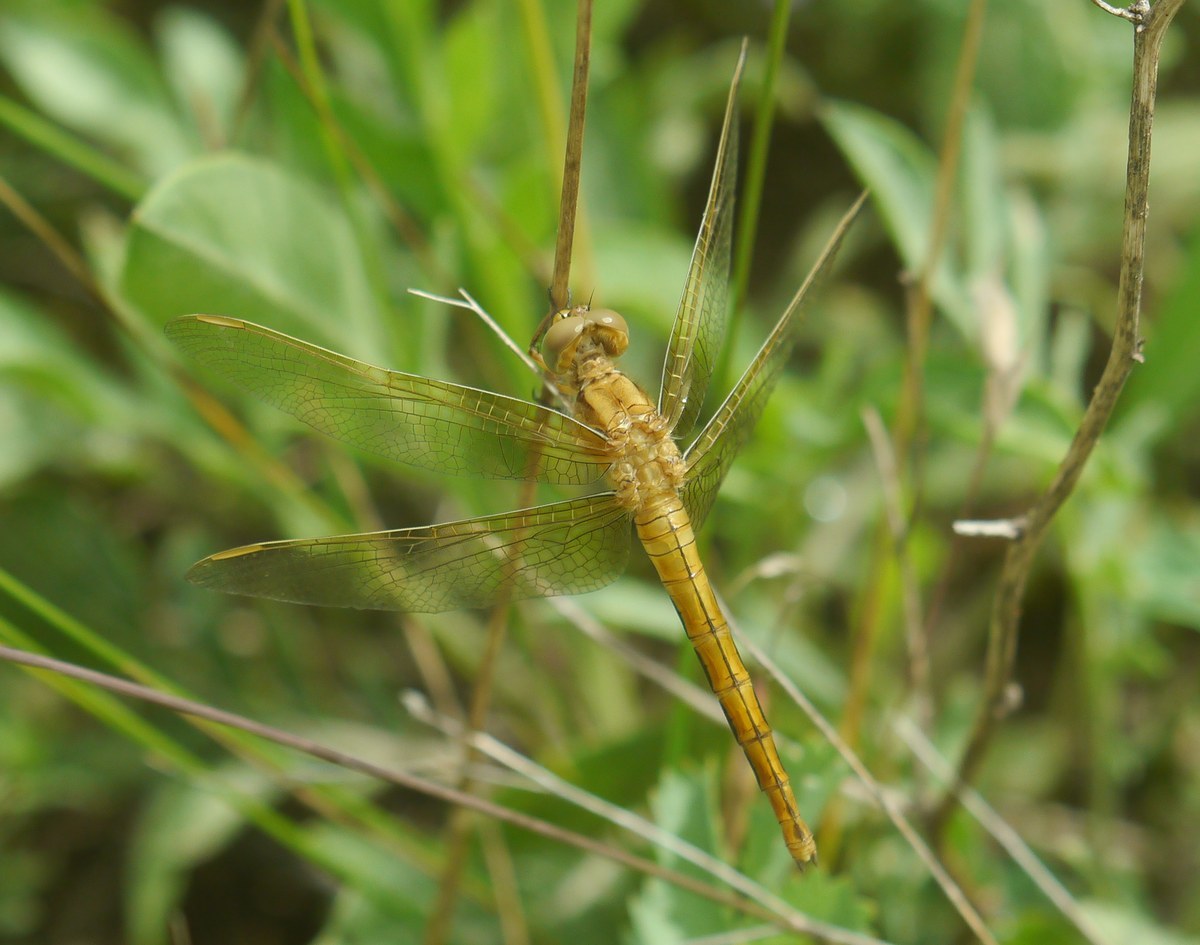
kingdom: Animalia
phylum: Arthropoda
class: Insecta
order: Odonata
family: Libellulidae
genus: Orthetrum
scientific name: Orthetrum coerulescens
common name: Keeled skimmer
